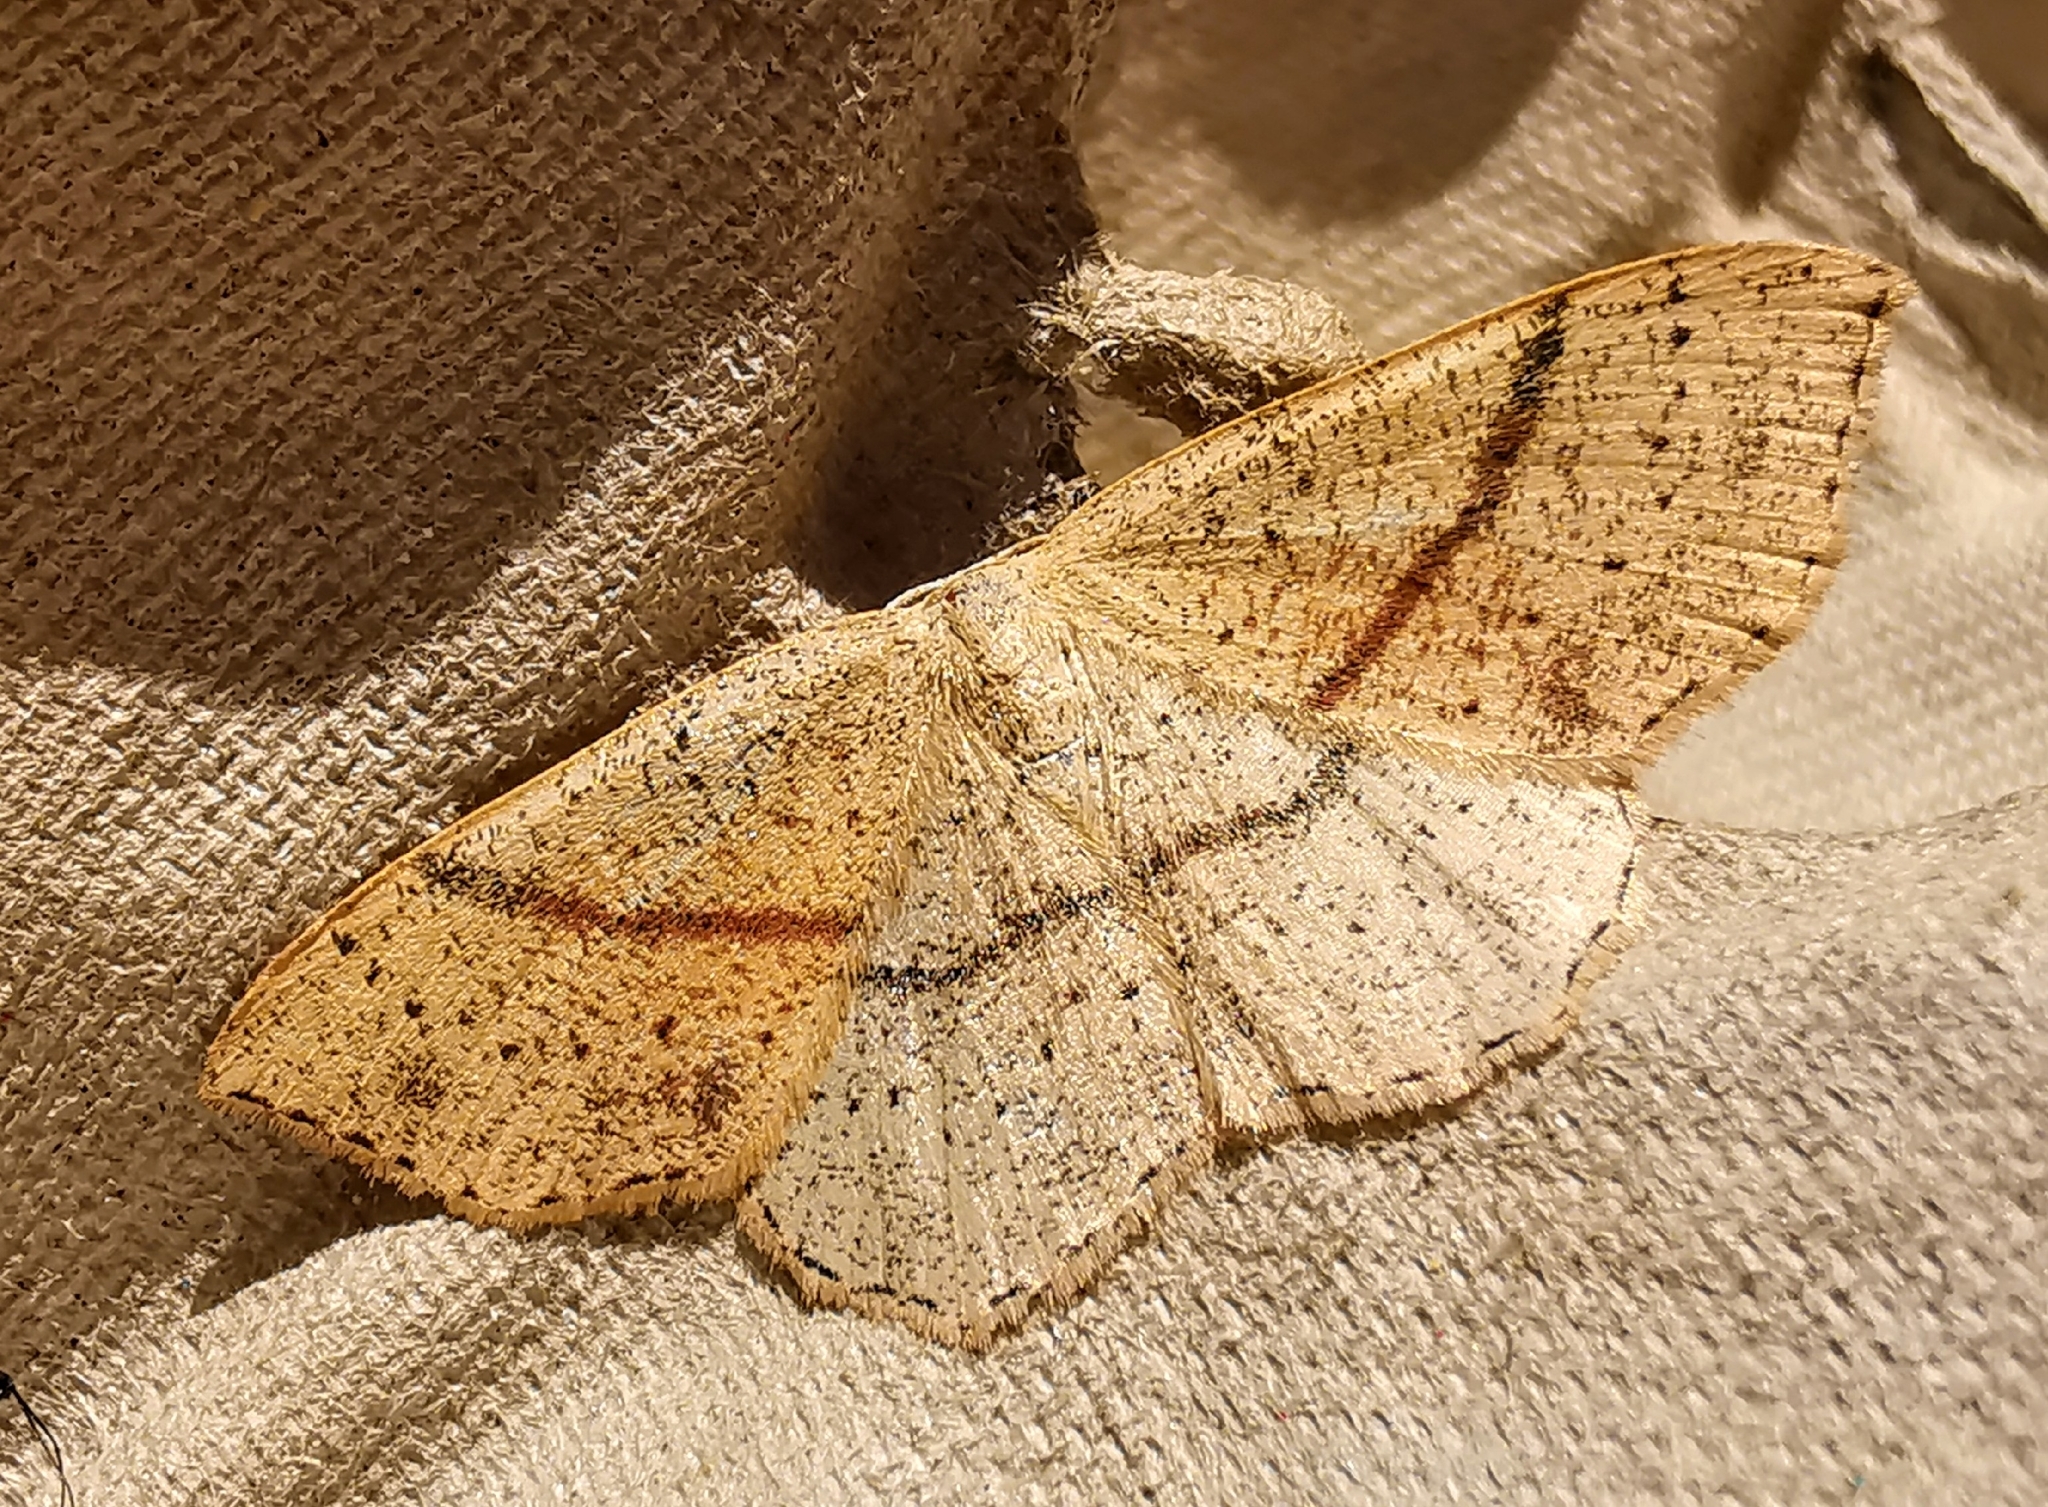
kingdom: Animalia
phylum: Arthropoda
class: Insecta
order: Lepidoptera
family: Geometridae
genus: Cyclophora
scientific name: Cyclophora punctaria
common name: Maiden's blush
